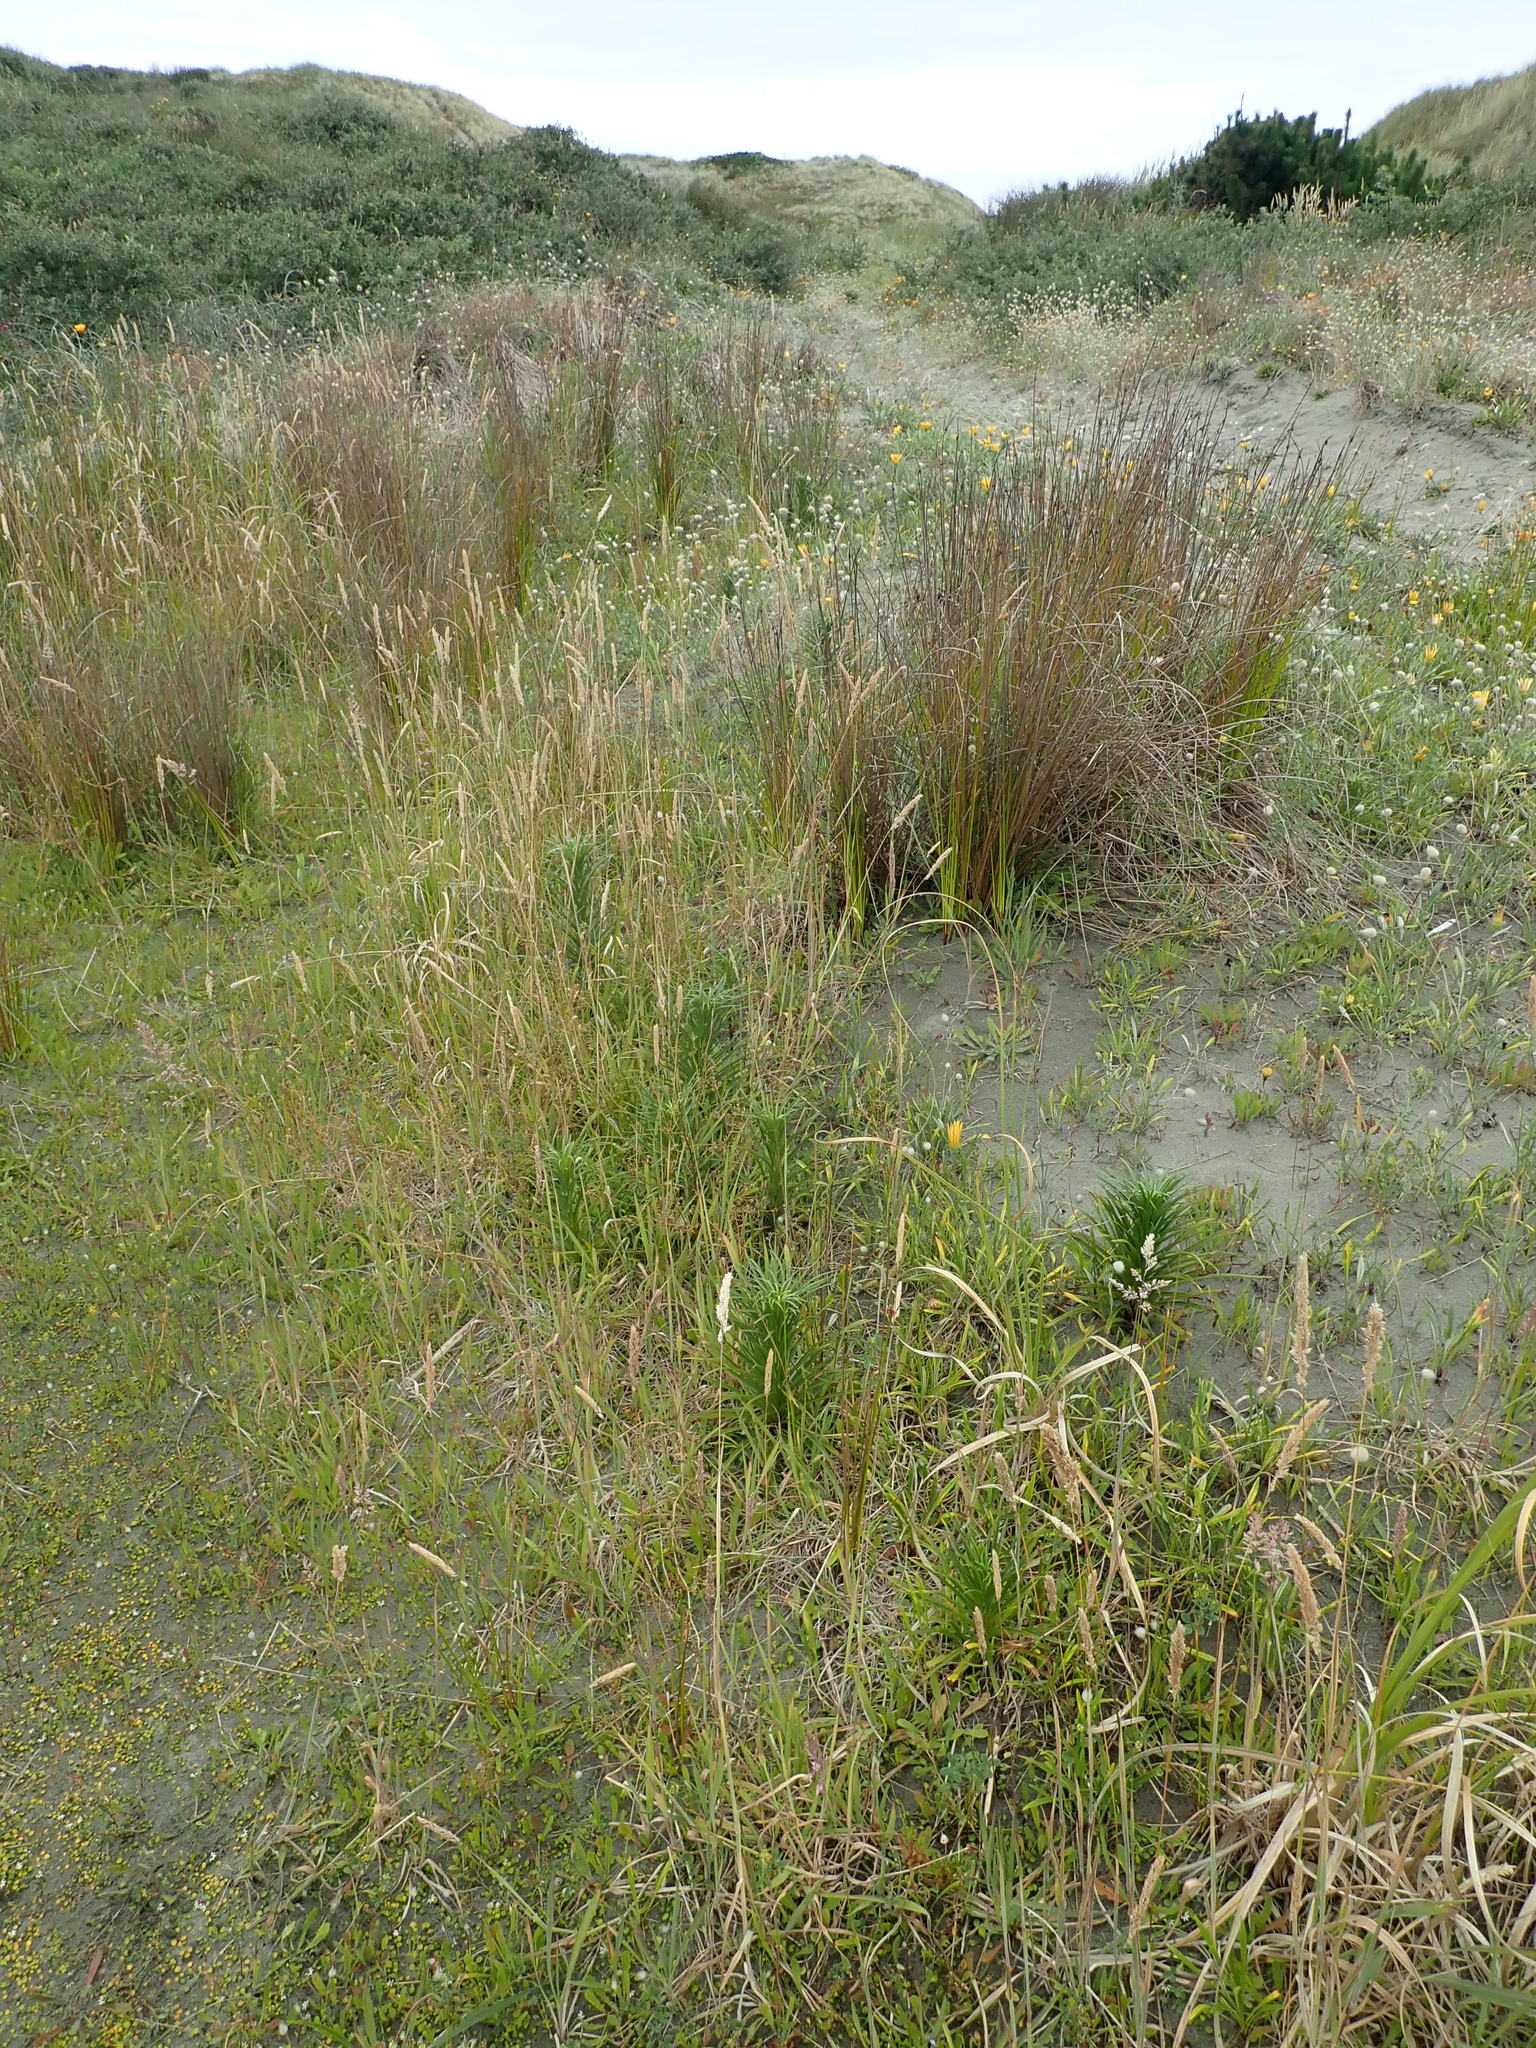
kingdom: Plantae
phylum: Tracheophyta
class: Liliopsida
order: Liliales
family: Liliaceae
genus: Lilium
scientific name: Lilium formosanum
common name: Formosa lily
